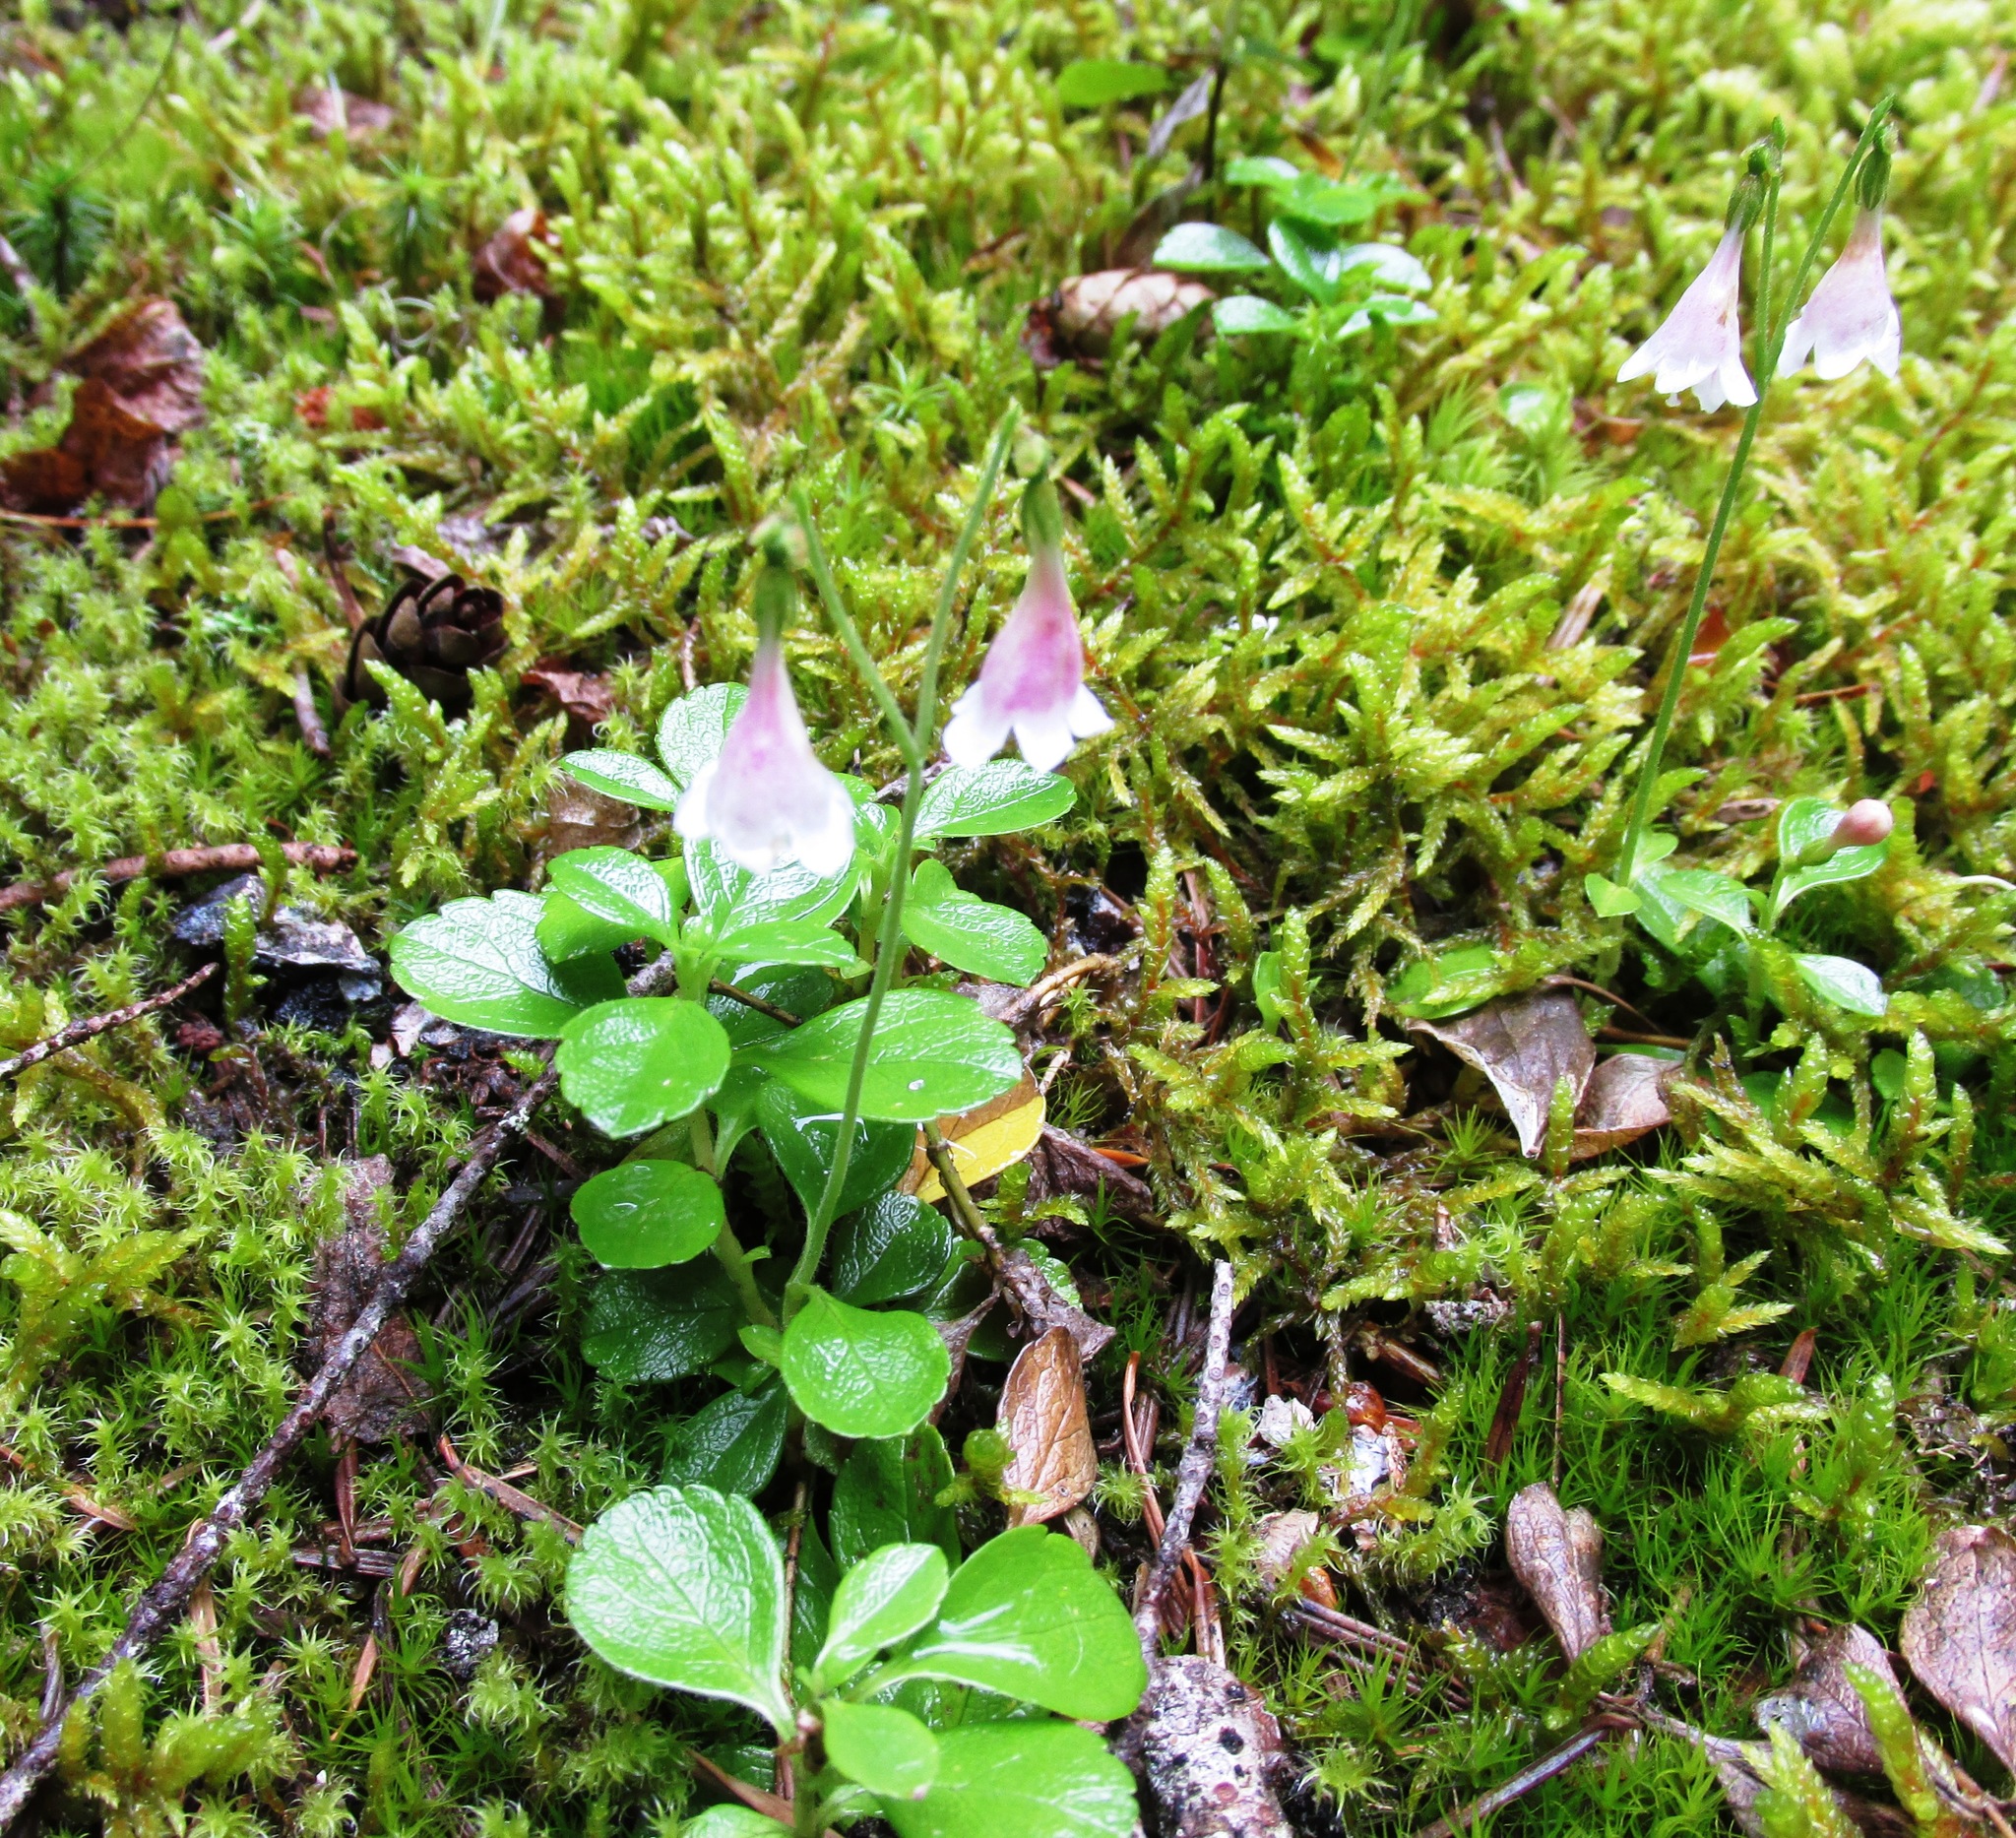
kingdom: Plantae
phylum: Tracheophyta
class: Magnoliopsida
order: Dipsacales
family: Caprifoliaceae
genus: Linnaea
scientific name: Linnaea borealis
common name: Twinflower
